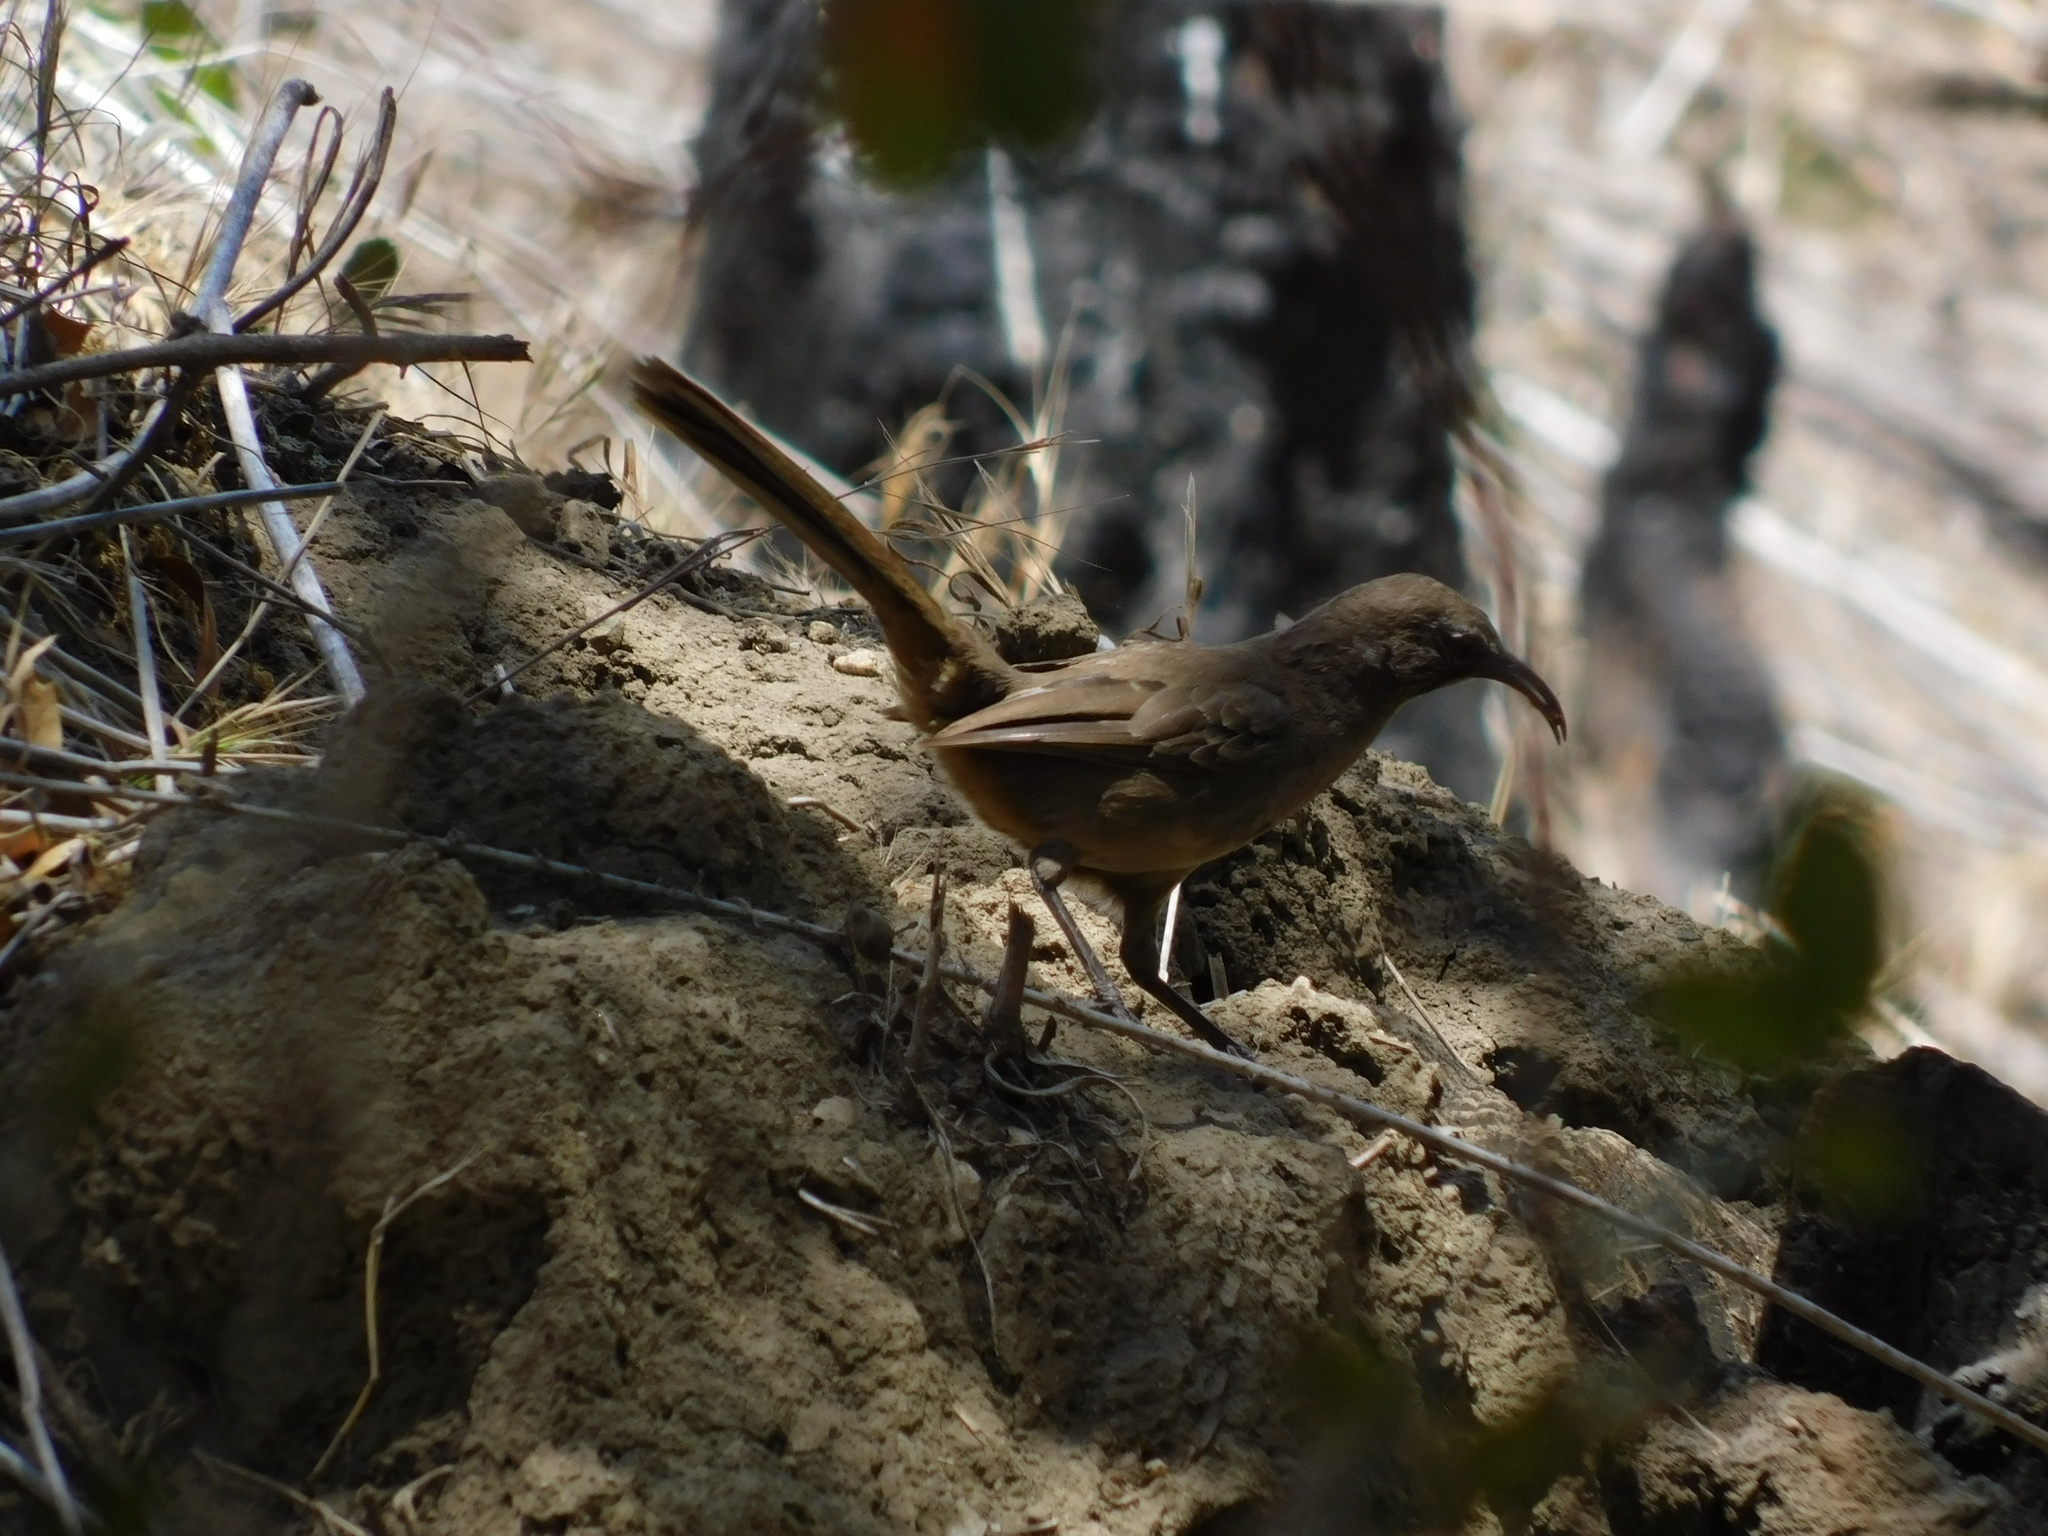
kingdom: Animalia
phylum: Chordata
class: Aves
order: Passeriformes
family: Mimidae
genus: Toxostoma
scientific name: Toxostoma redivivum
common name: California thrasher
